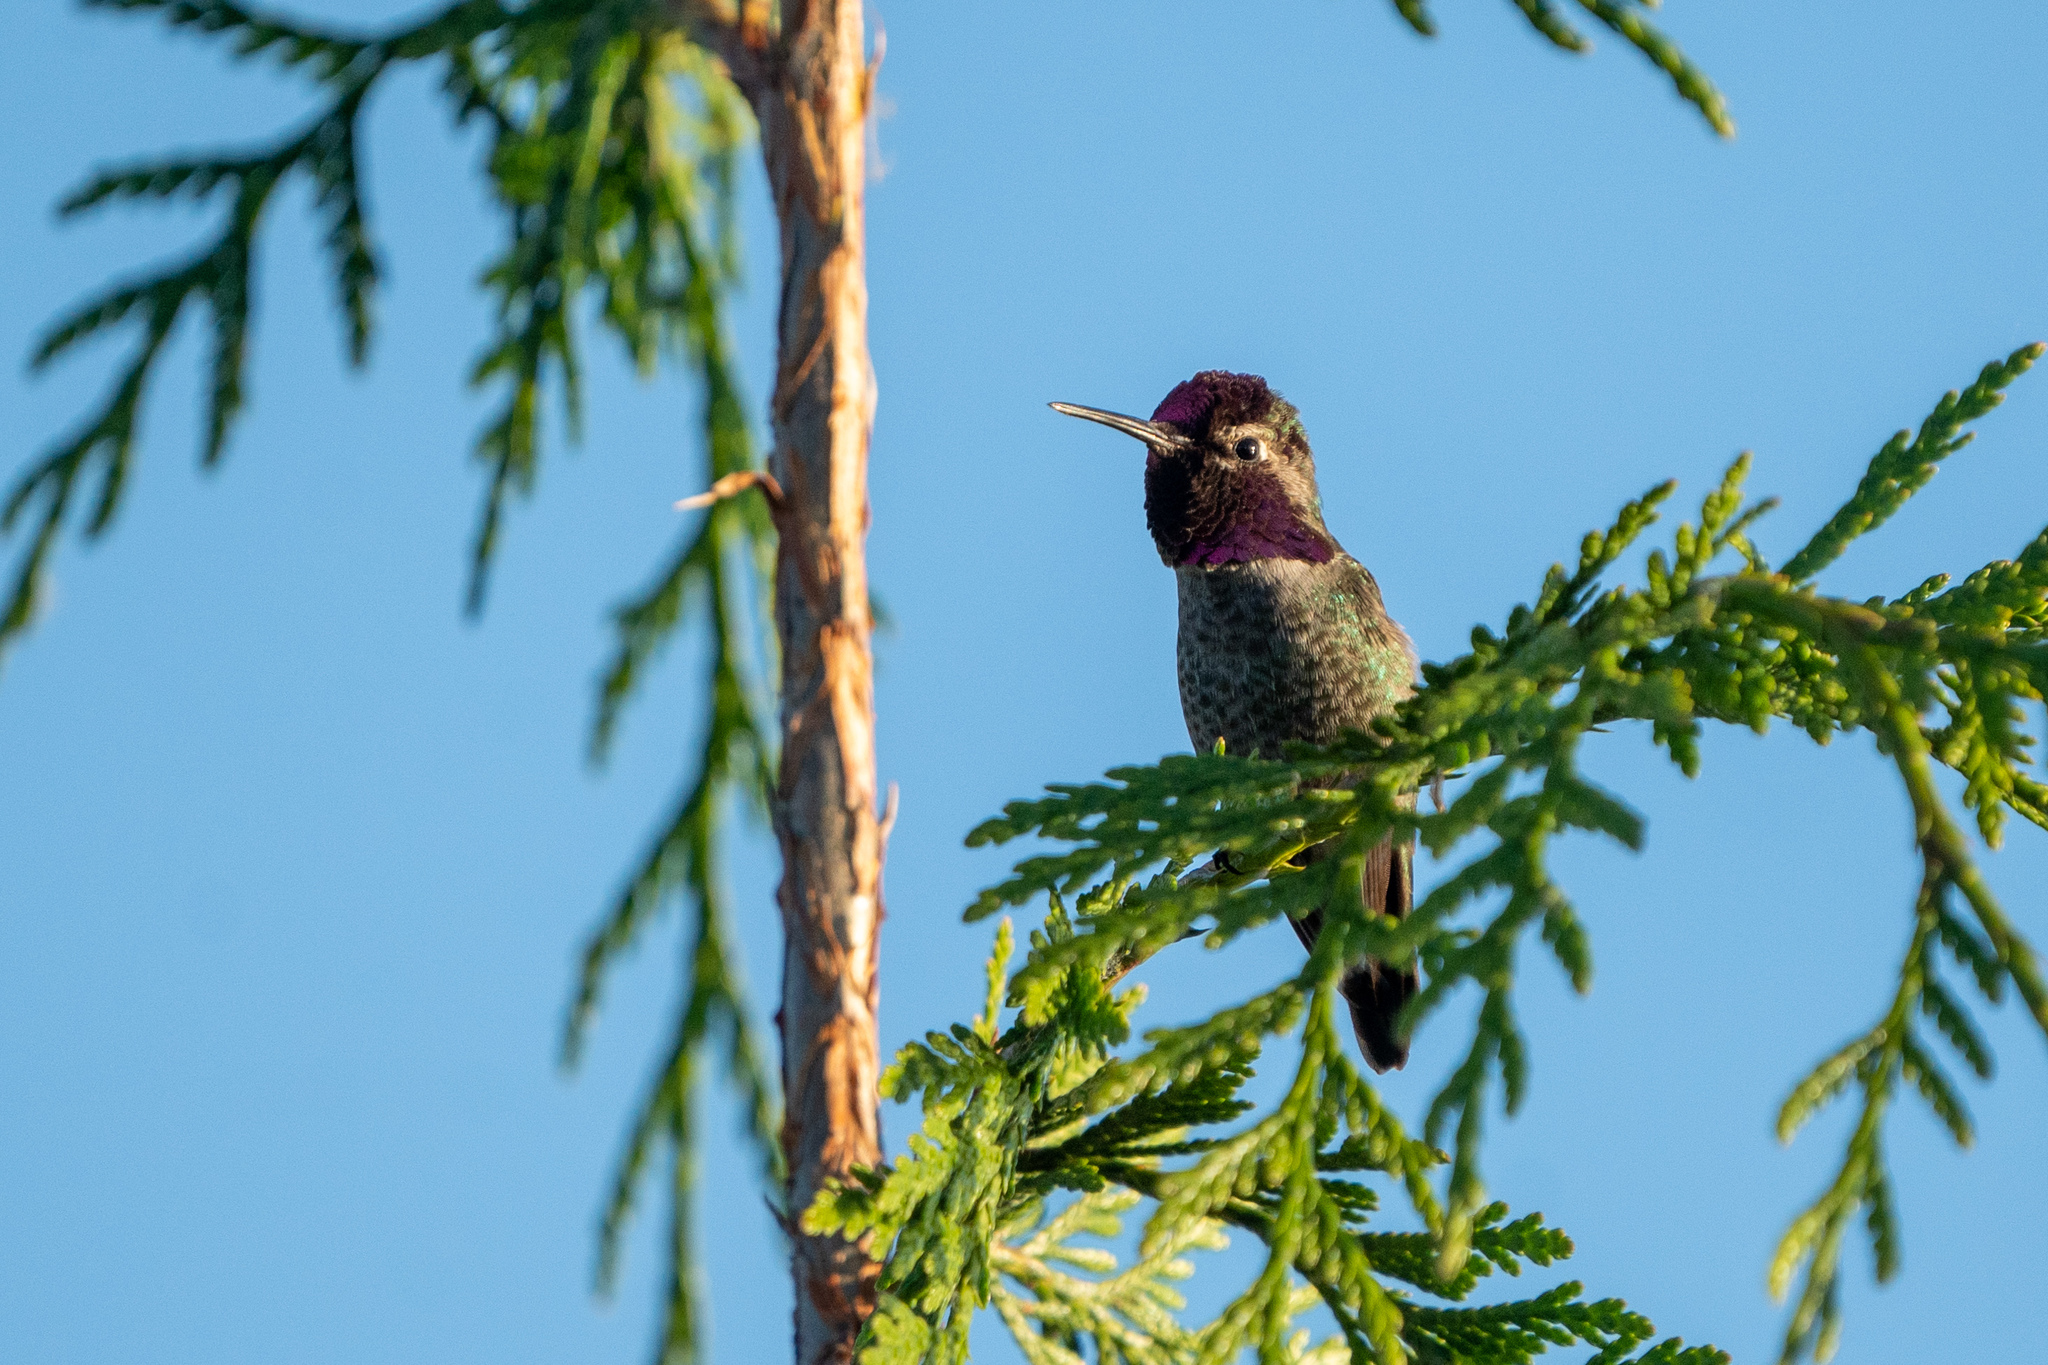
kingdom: Animalia
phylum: Chordata
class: Aves
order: Apodiformes
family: Trochilidae
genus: Calypte
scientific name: Calypte anna
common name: Anna's hummingbird
